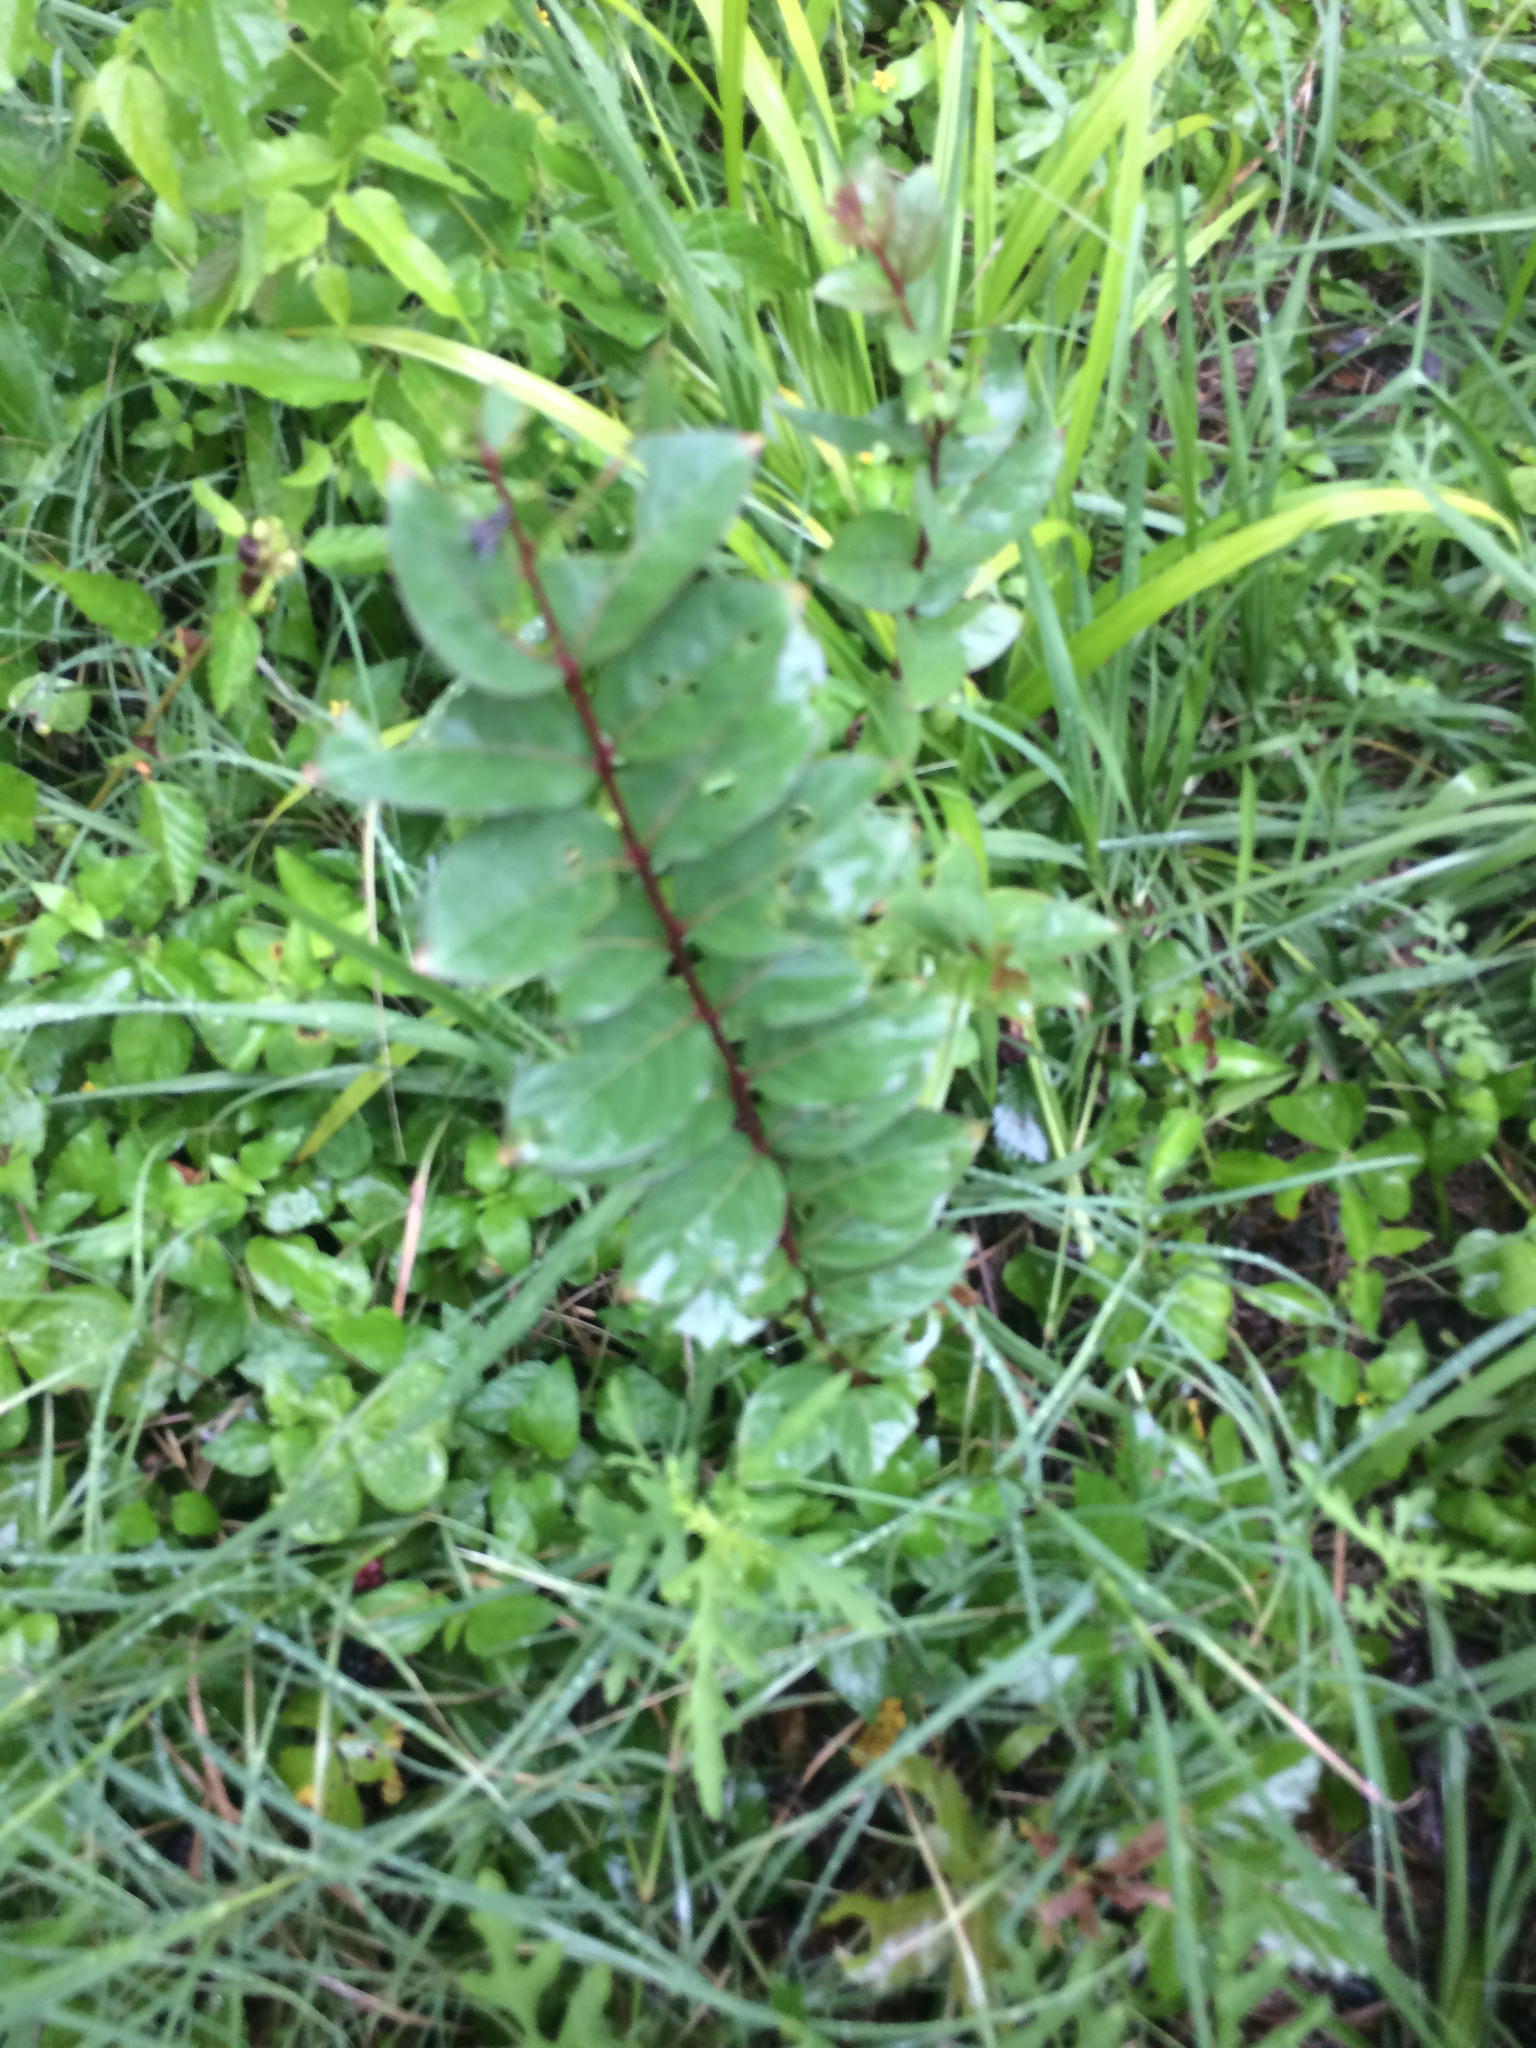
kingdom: Plantae
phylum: Tracheophyta
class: Magnoliopsida
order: Myrtales
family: Lythraceae
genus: Lagerstroemia
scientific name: Lagerstroemia indica
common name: Crape-myrtle
